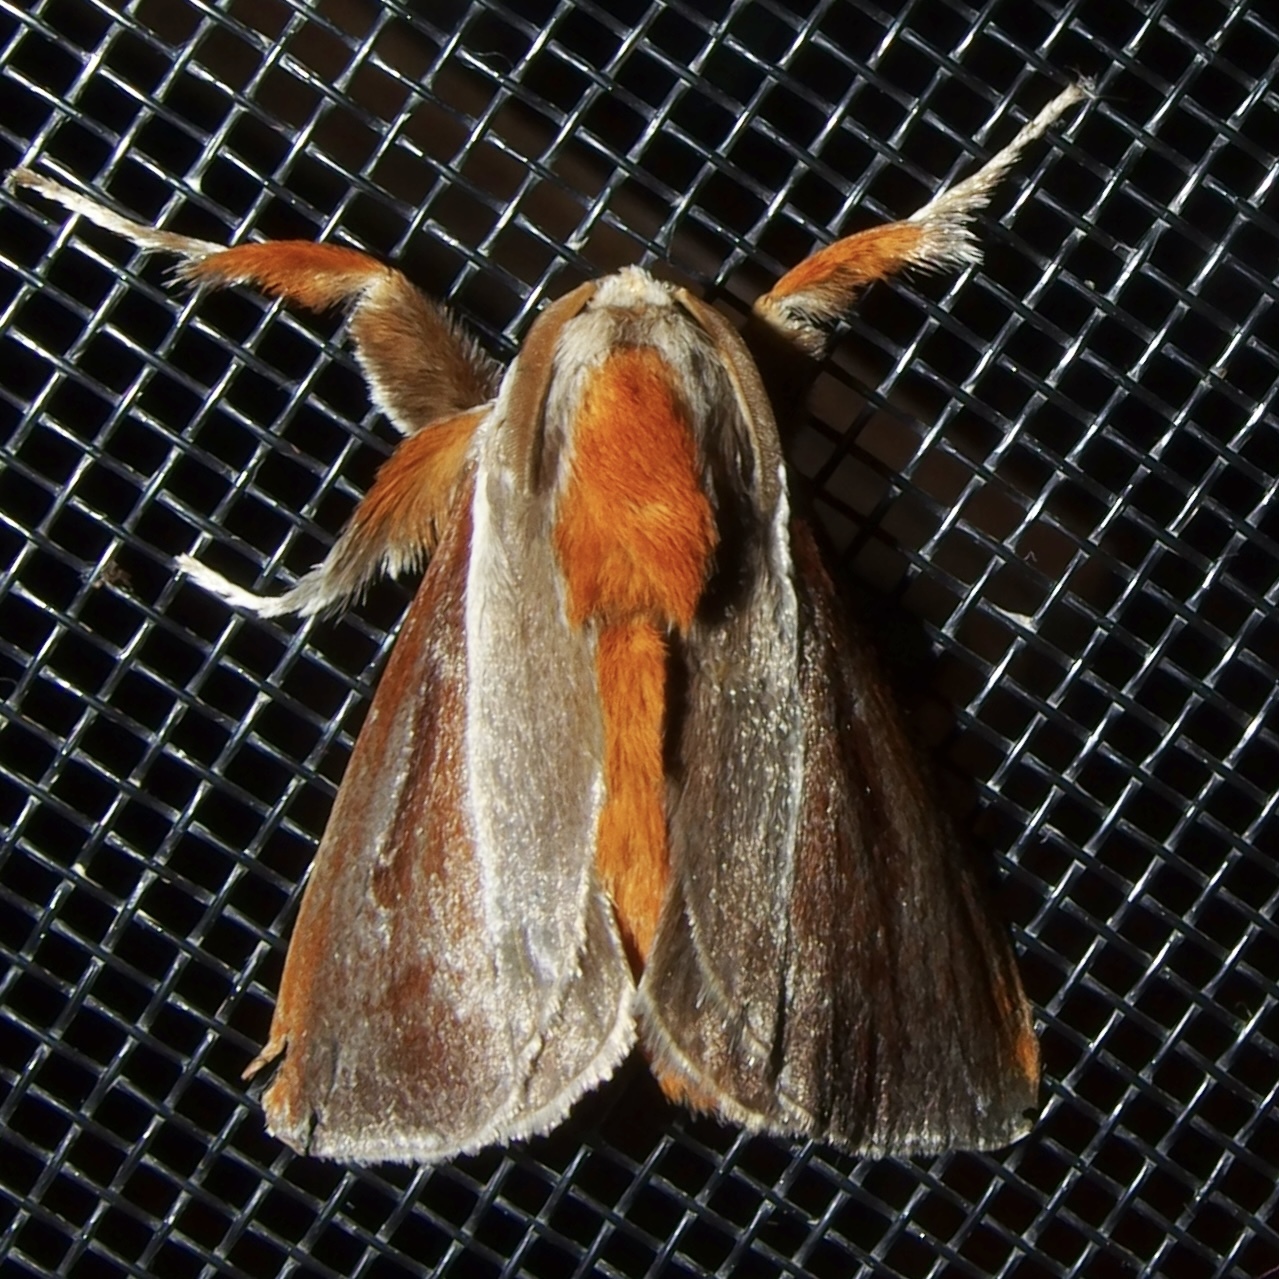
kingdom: Animalia
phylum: Arthropoda
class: Insecta
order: Lepidoptera
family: Limacodidae
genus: Epiperola
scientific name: Epiperola grandiosa
